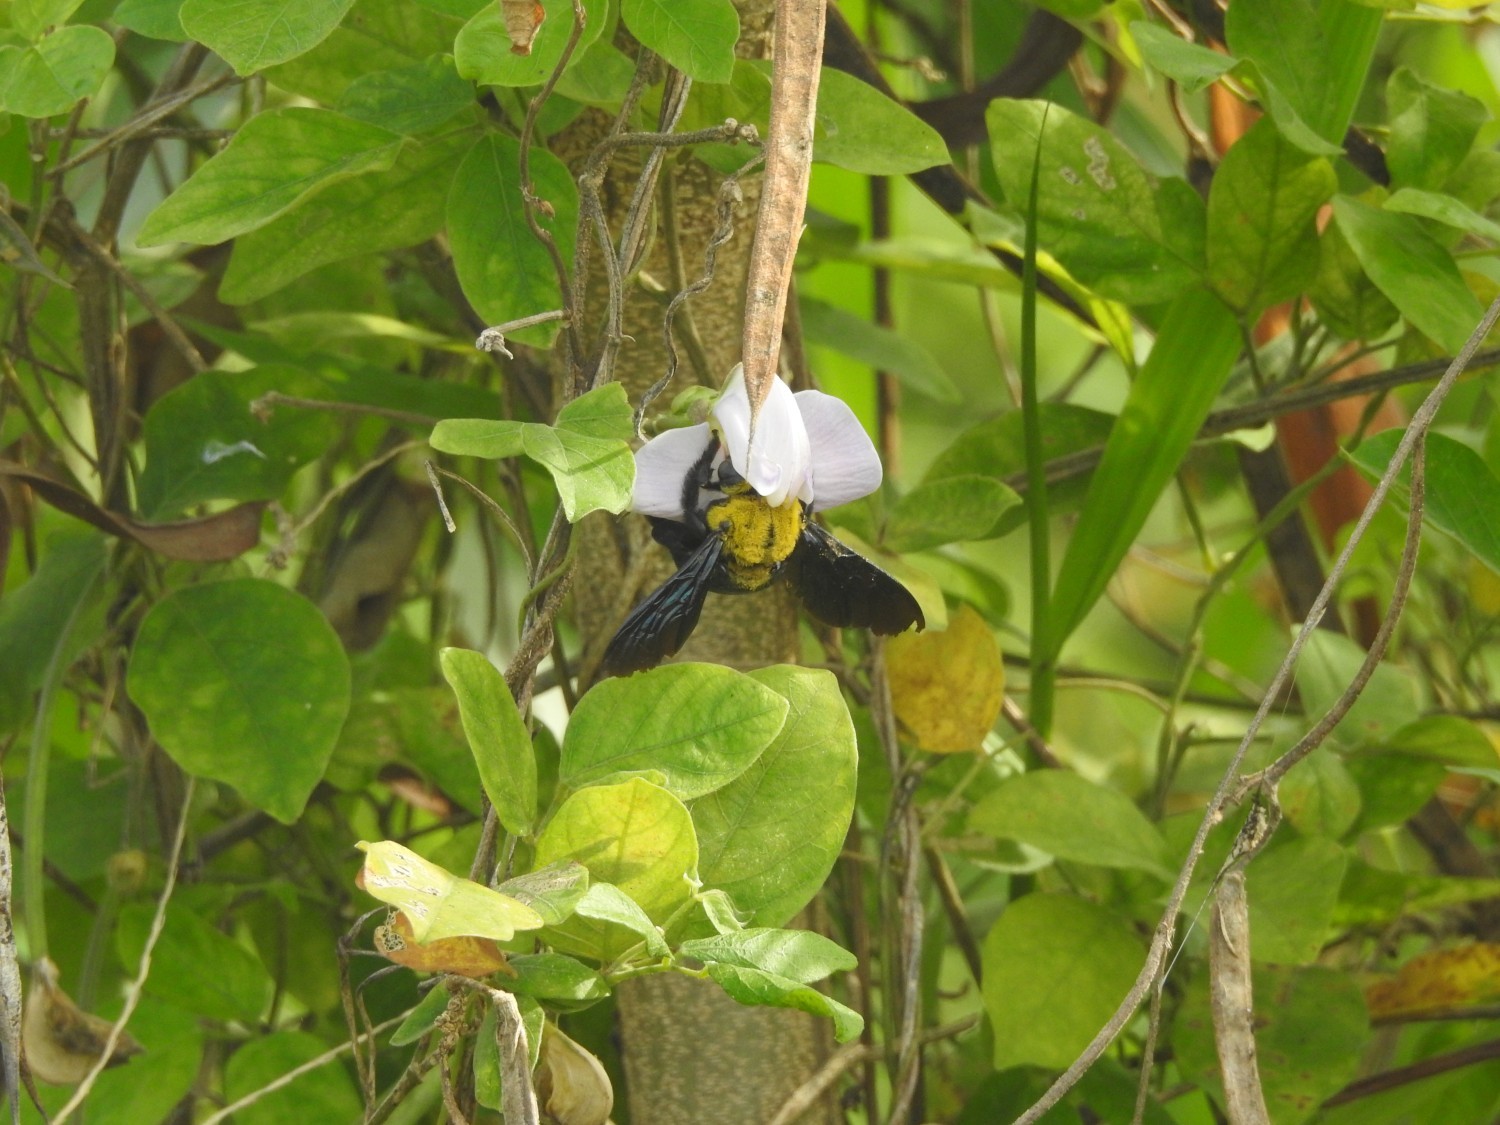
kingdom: Animalia
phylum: Arthropoda
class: Insecta
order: Hymenoptera
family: Apidae
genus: Xylocopa
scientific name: Xylocopa ruficornis
